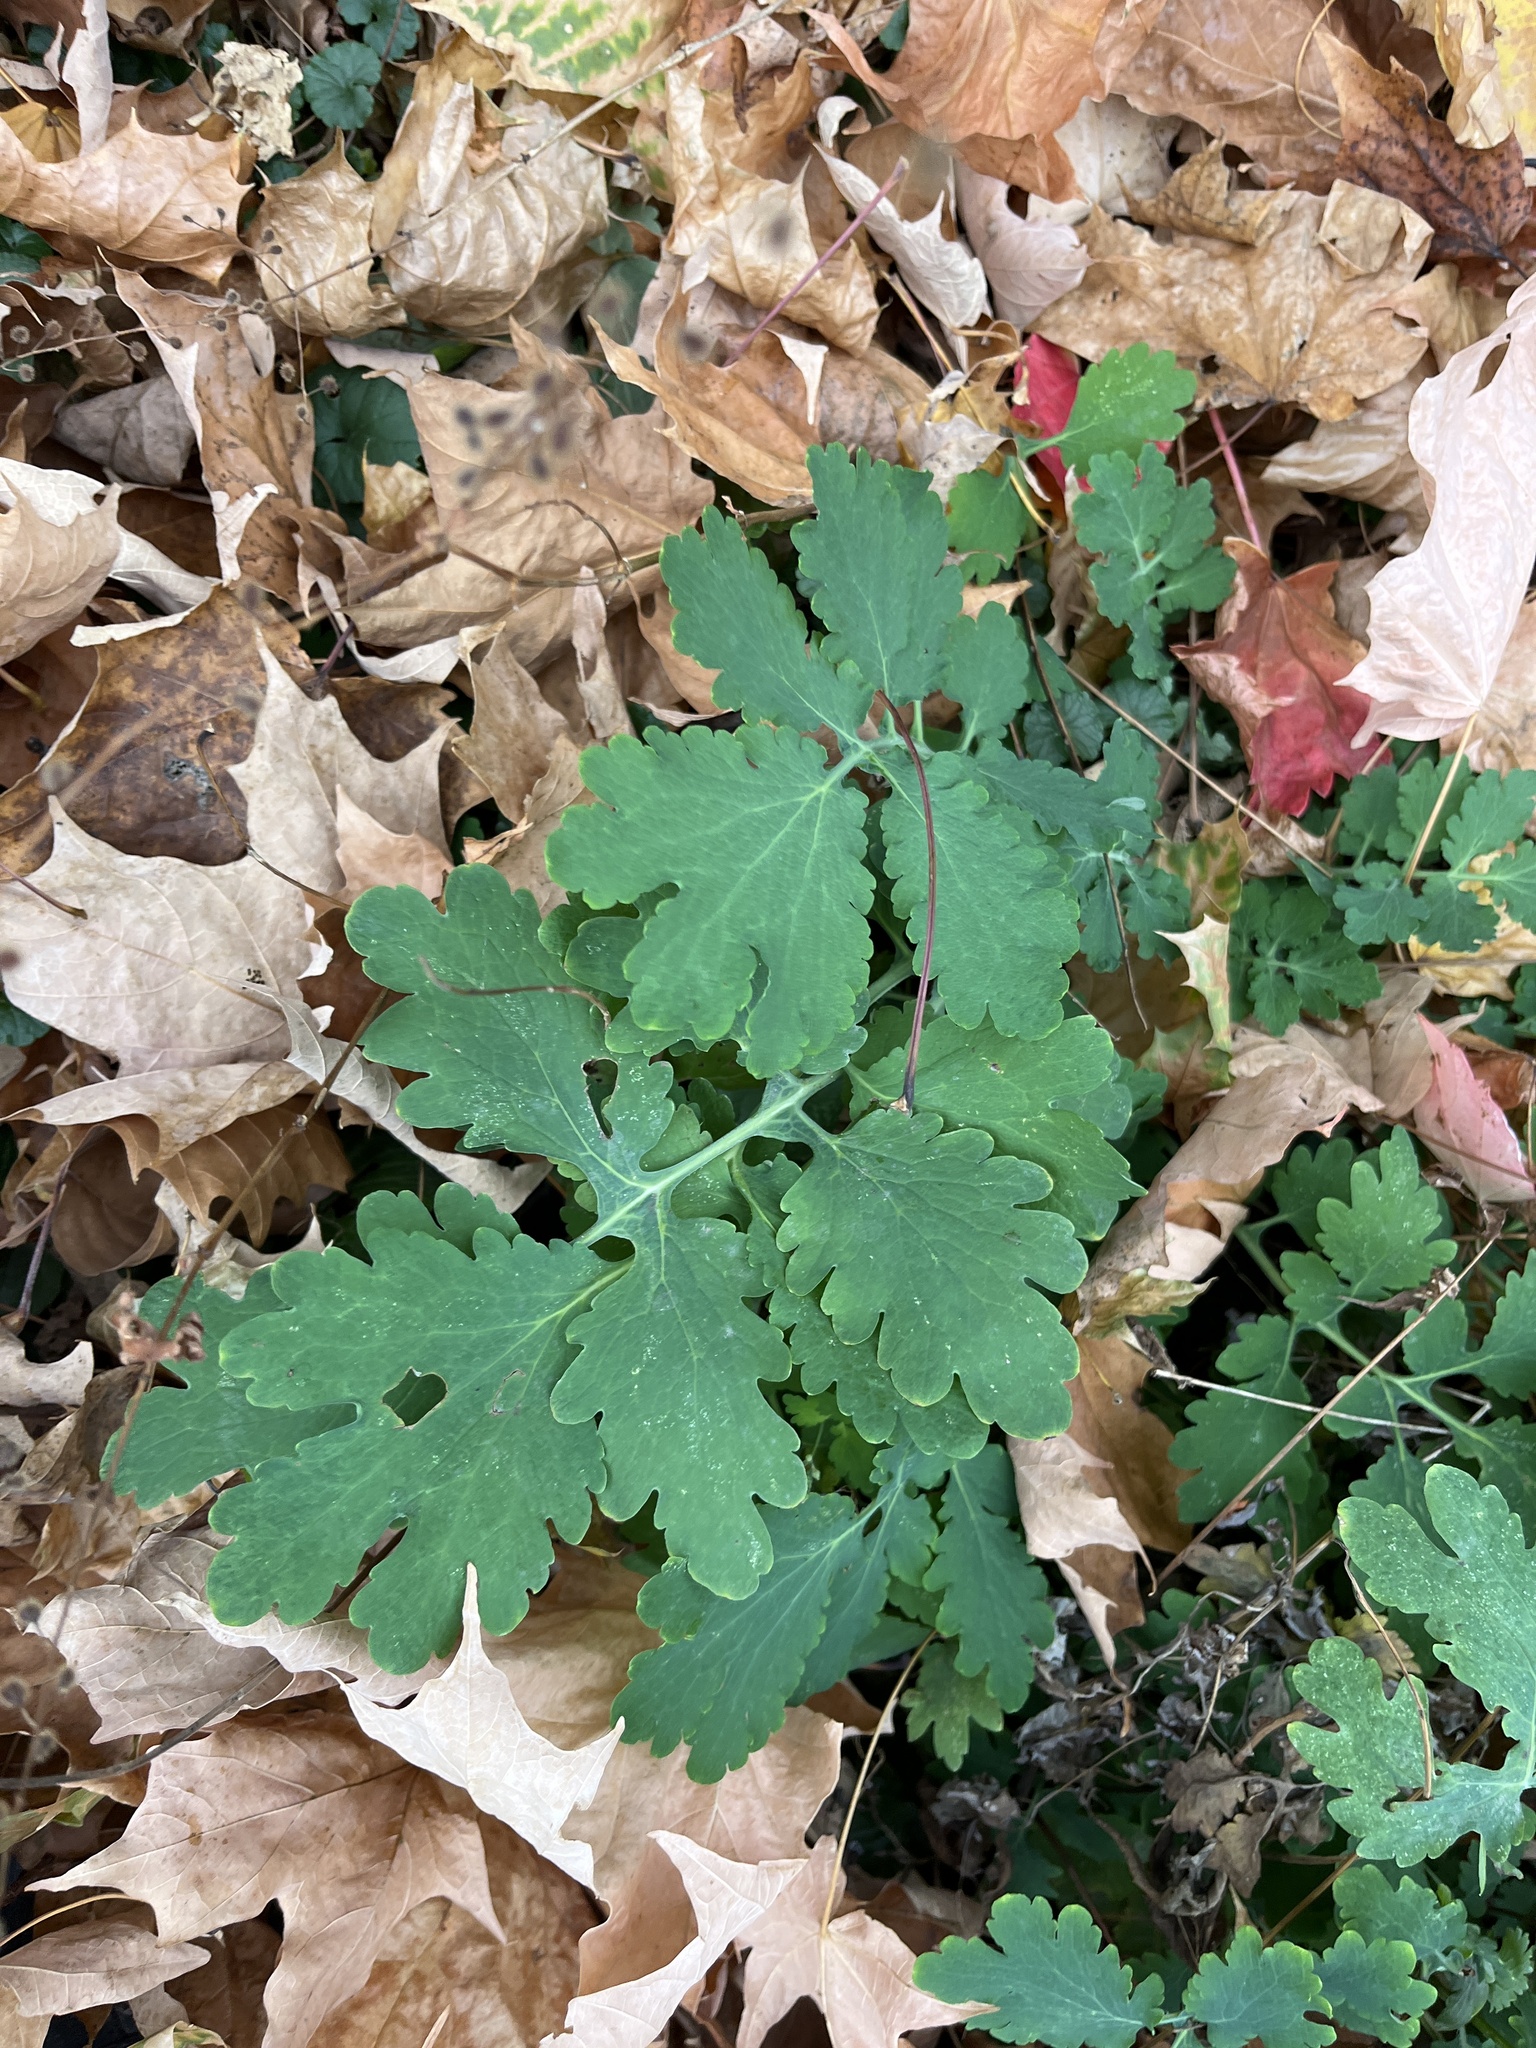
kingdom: Plantae
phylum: Tracheophyta
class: Magnoliopsida
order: Ranunculales
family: Papaveraceae
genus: Chelidonium
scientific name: Chelidonium majus
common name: Greater celandine
